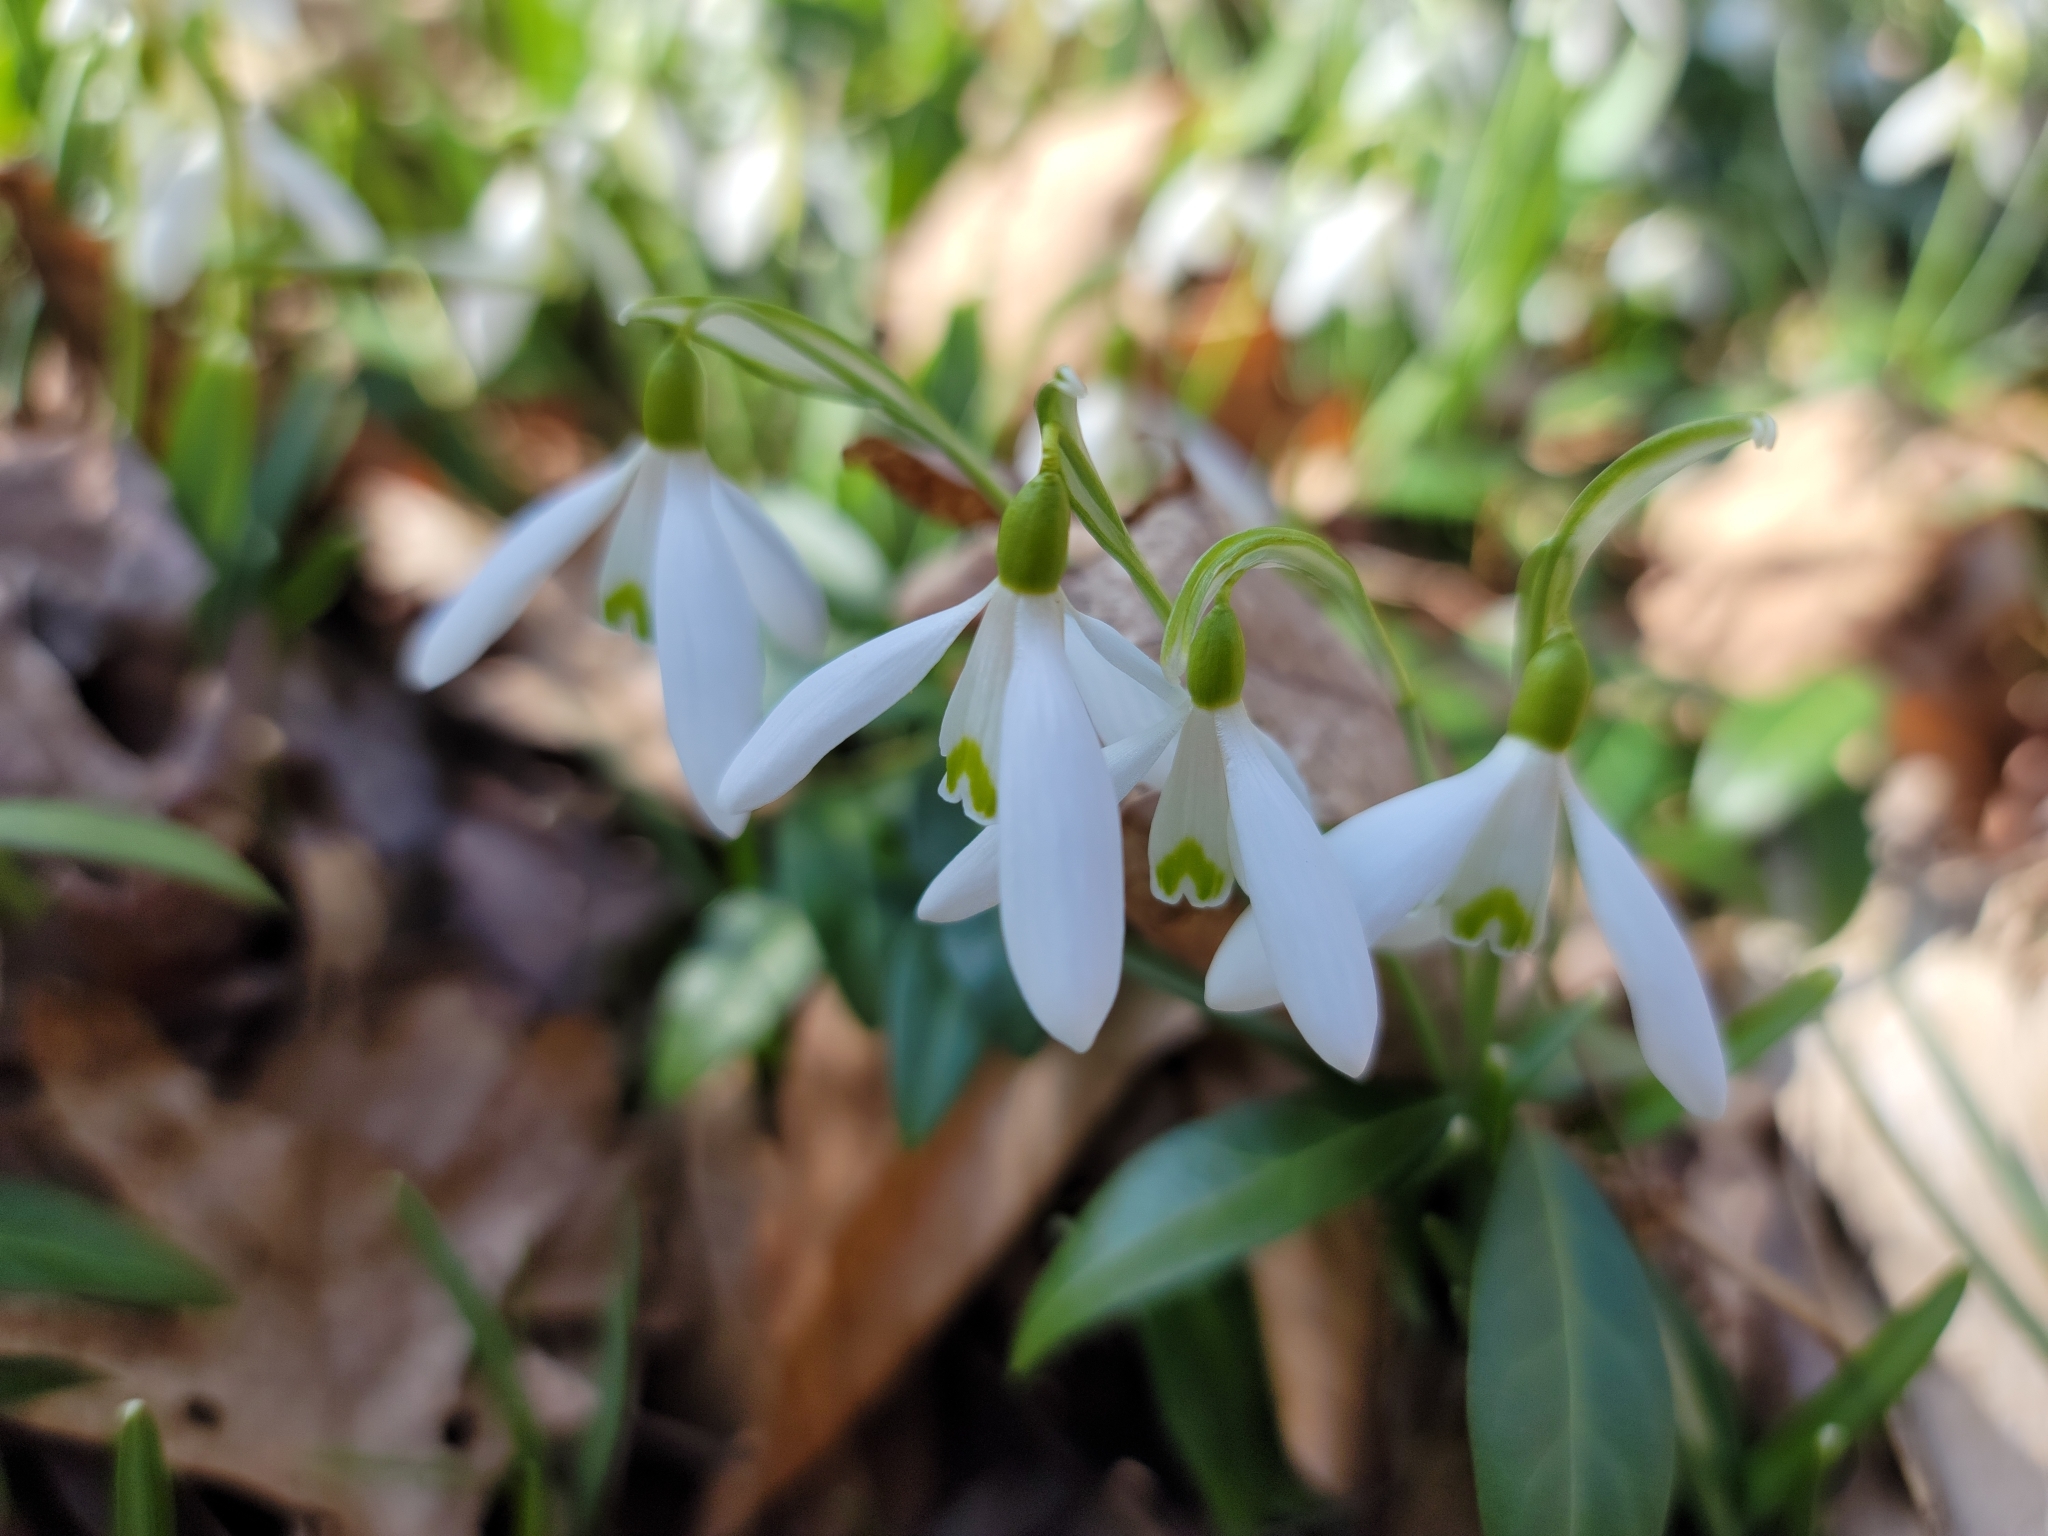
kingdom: Plantae
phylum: Tracheophyta
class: Liliopsida
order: Asparagales
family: Amaryllidaceae
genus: Galanthus
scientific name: Galanthus nivalis
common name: Snowdrop
